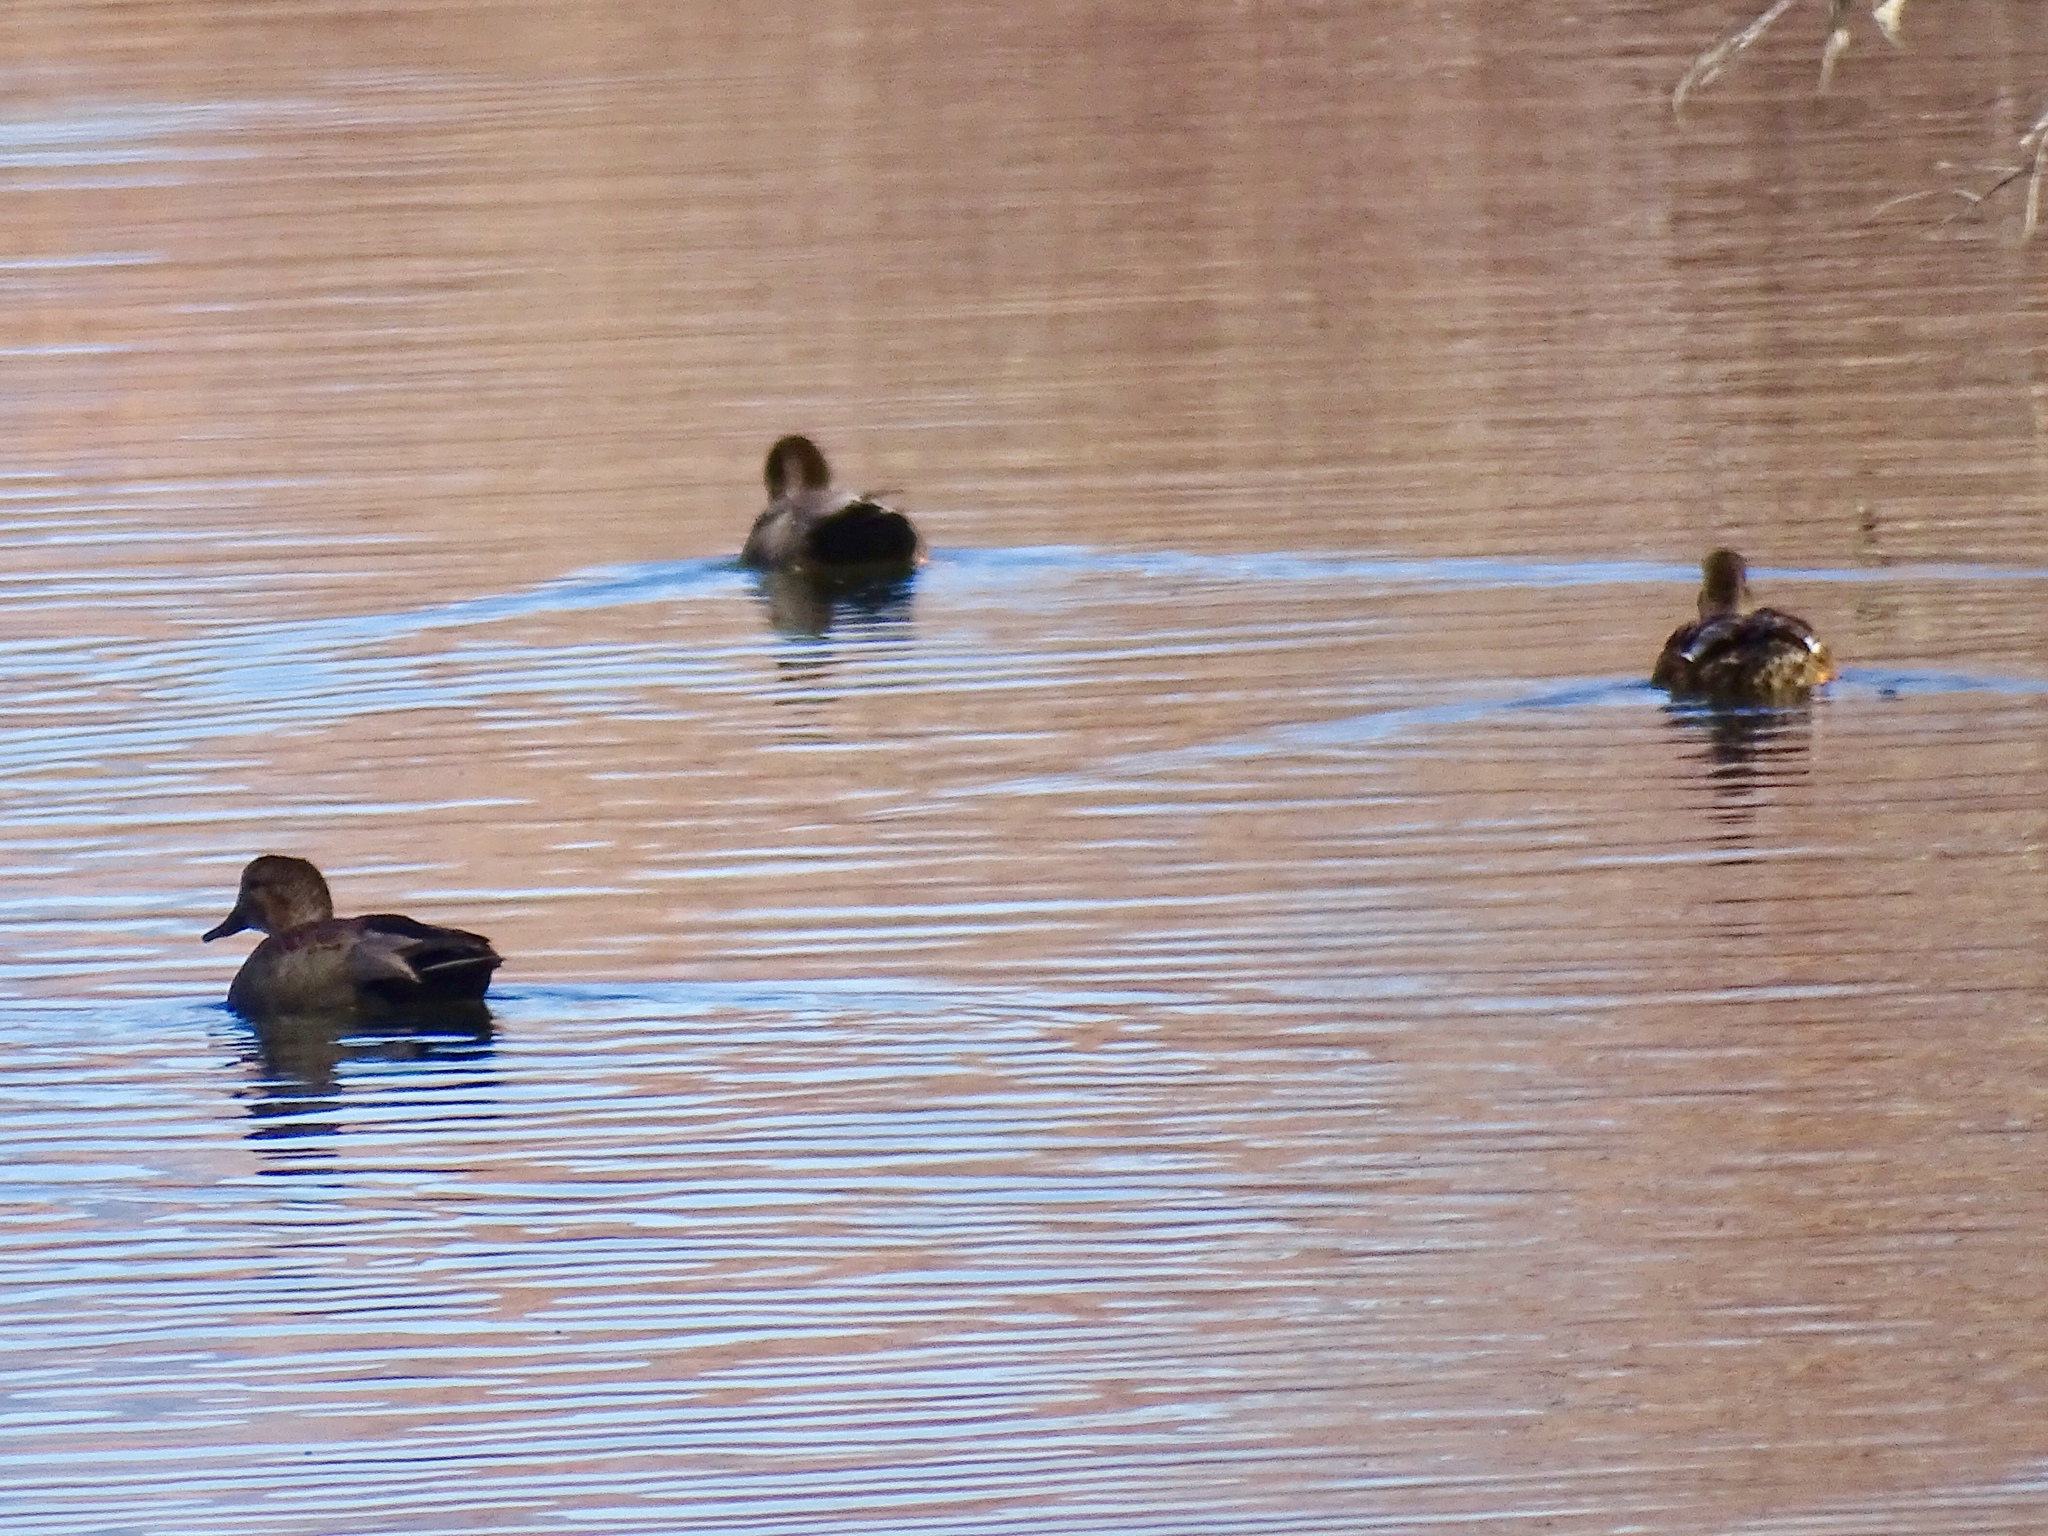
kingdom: Animalia
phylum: Chordata
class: Aves
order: Anseriformes
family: Anatidae
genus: Mareca
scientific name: Mareca strepera
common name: Gadwall
